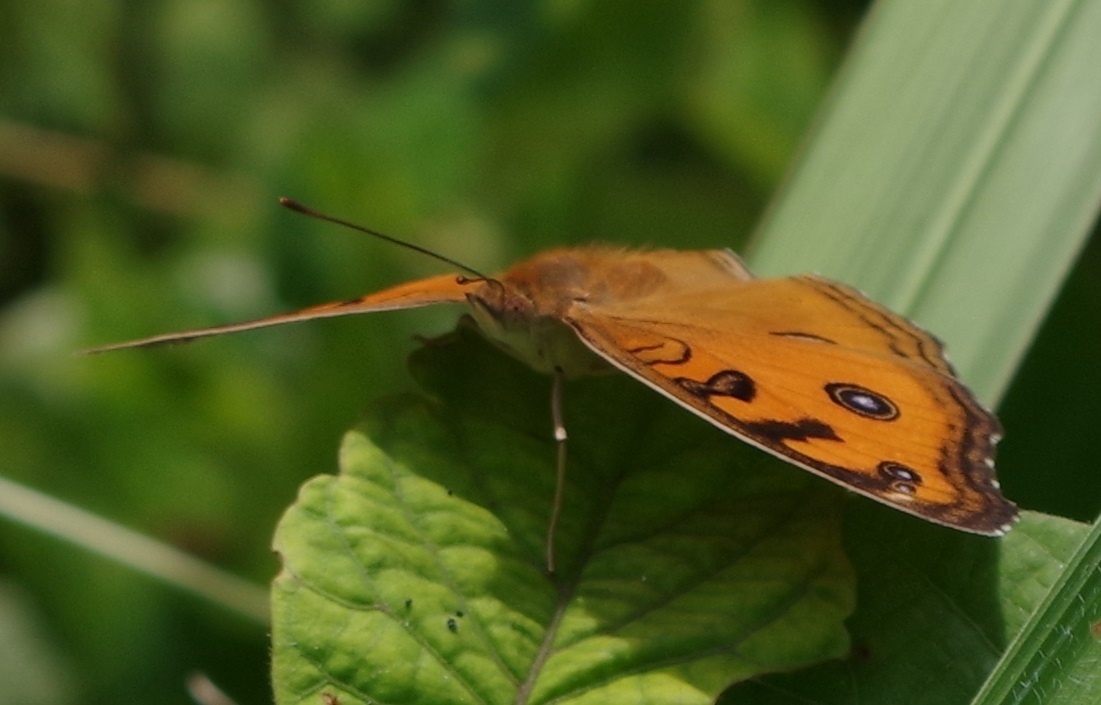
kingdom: Animalia
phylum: Arthropoda
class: Insecta
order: Lepidoptera
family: Nymphalidae
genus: Junonia
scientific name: Junonia almana
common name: Peacock pansy
